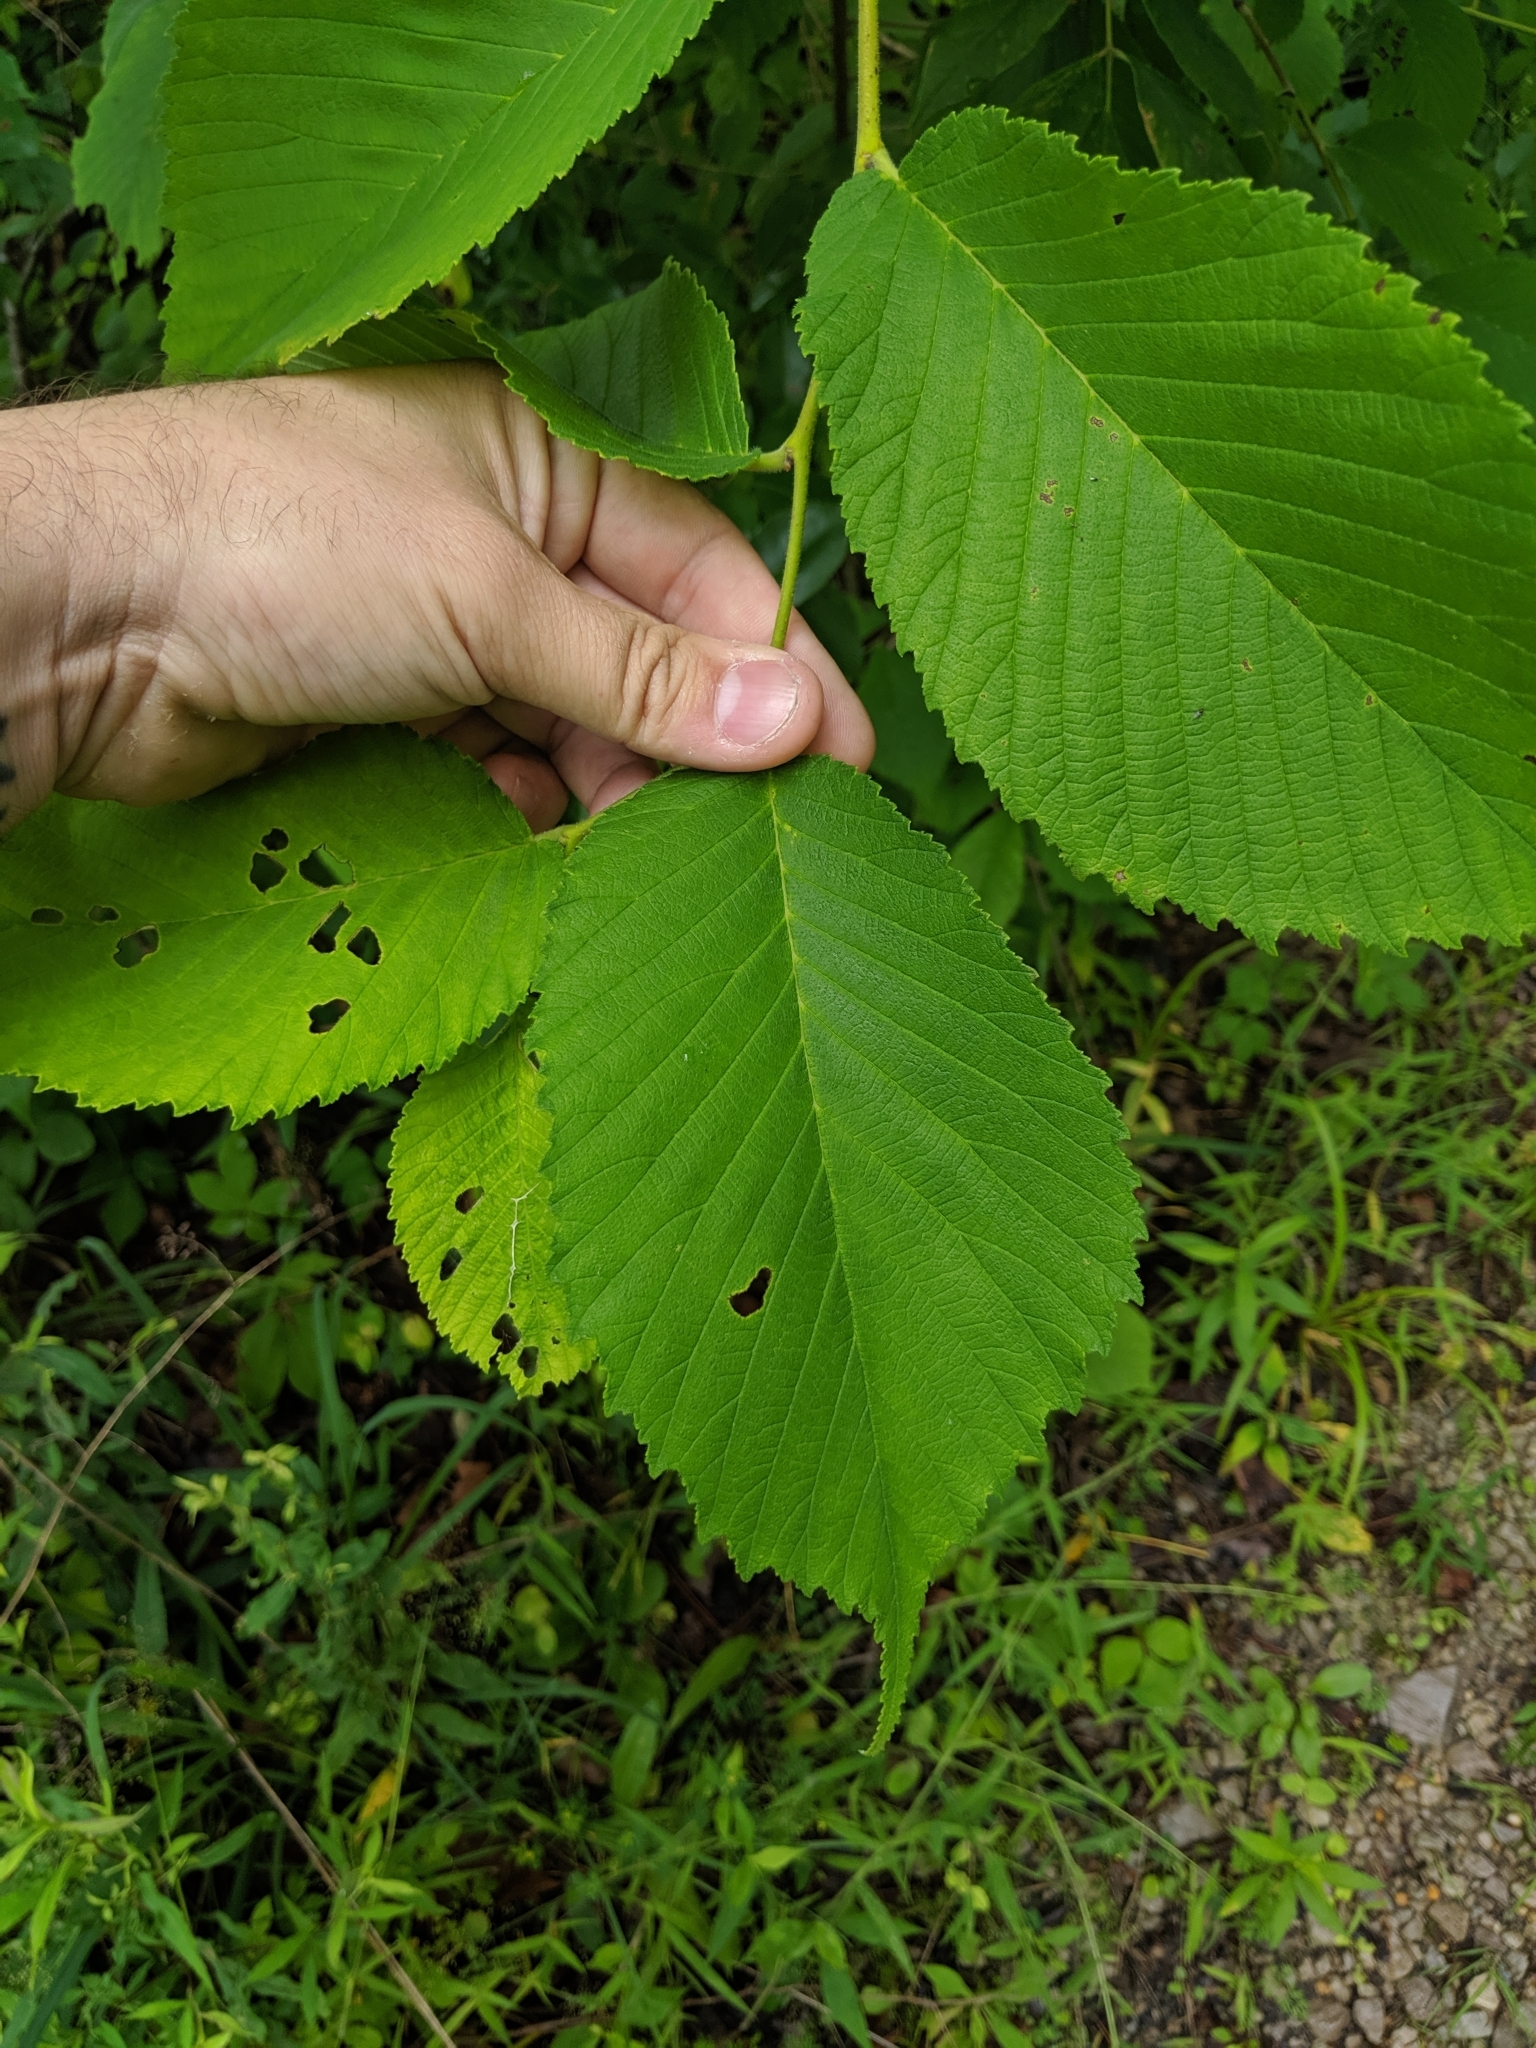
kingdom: Plantae
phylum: Tracheophyta
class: Magnoliopsida
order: Rosales
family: Ulmaceae
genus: Ulmus
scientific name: Ulmus rubra
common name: Slippery elm
